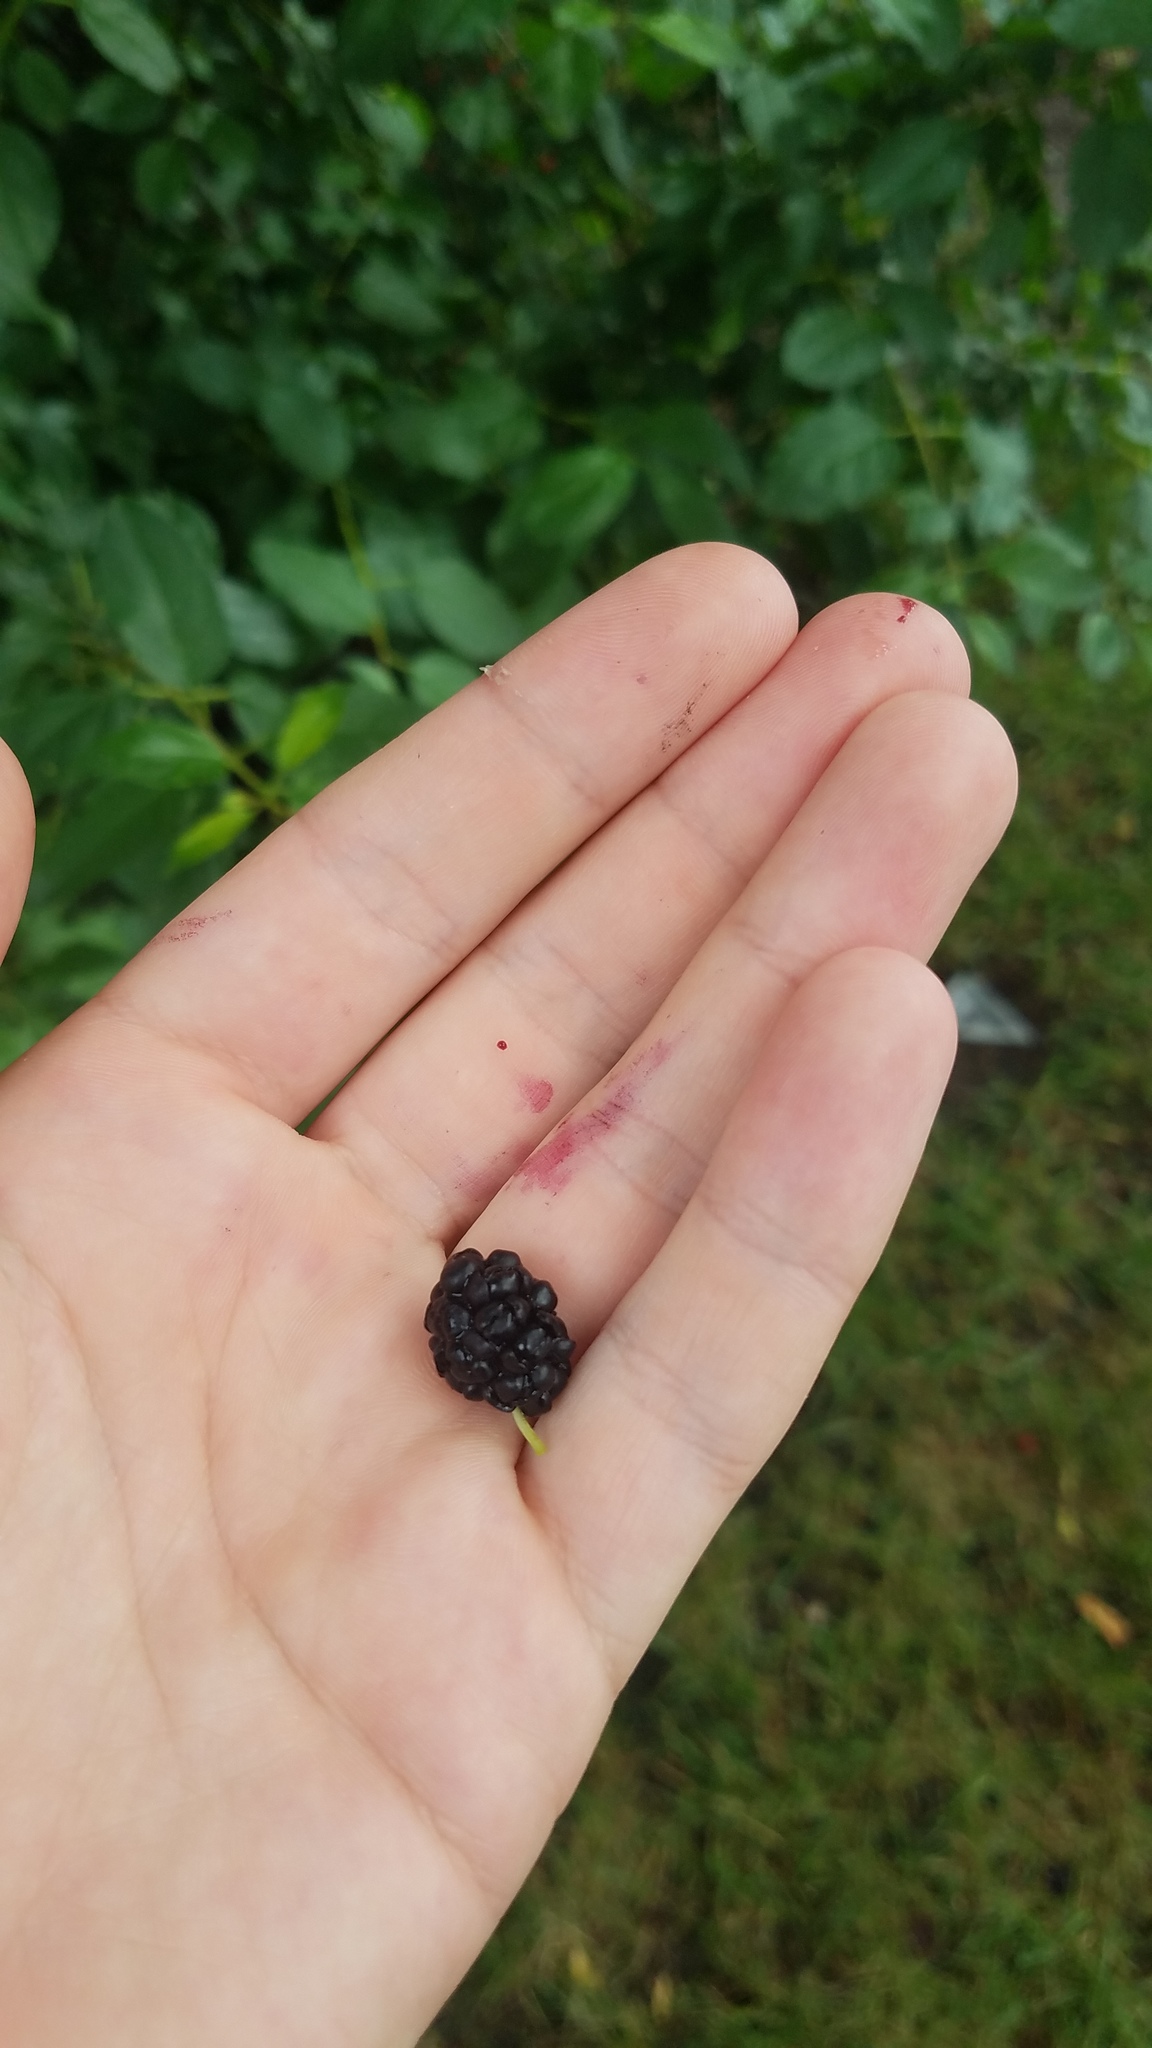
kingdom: Plantae
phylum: Tracheophyta
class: Magnoliopsida
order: Rosales
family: Moraceae
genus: Morus
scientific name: Morus alba
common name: White mulberry
